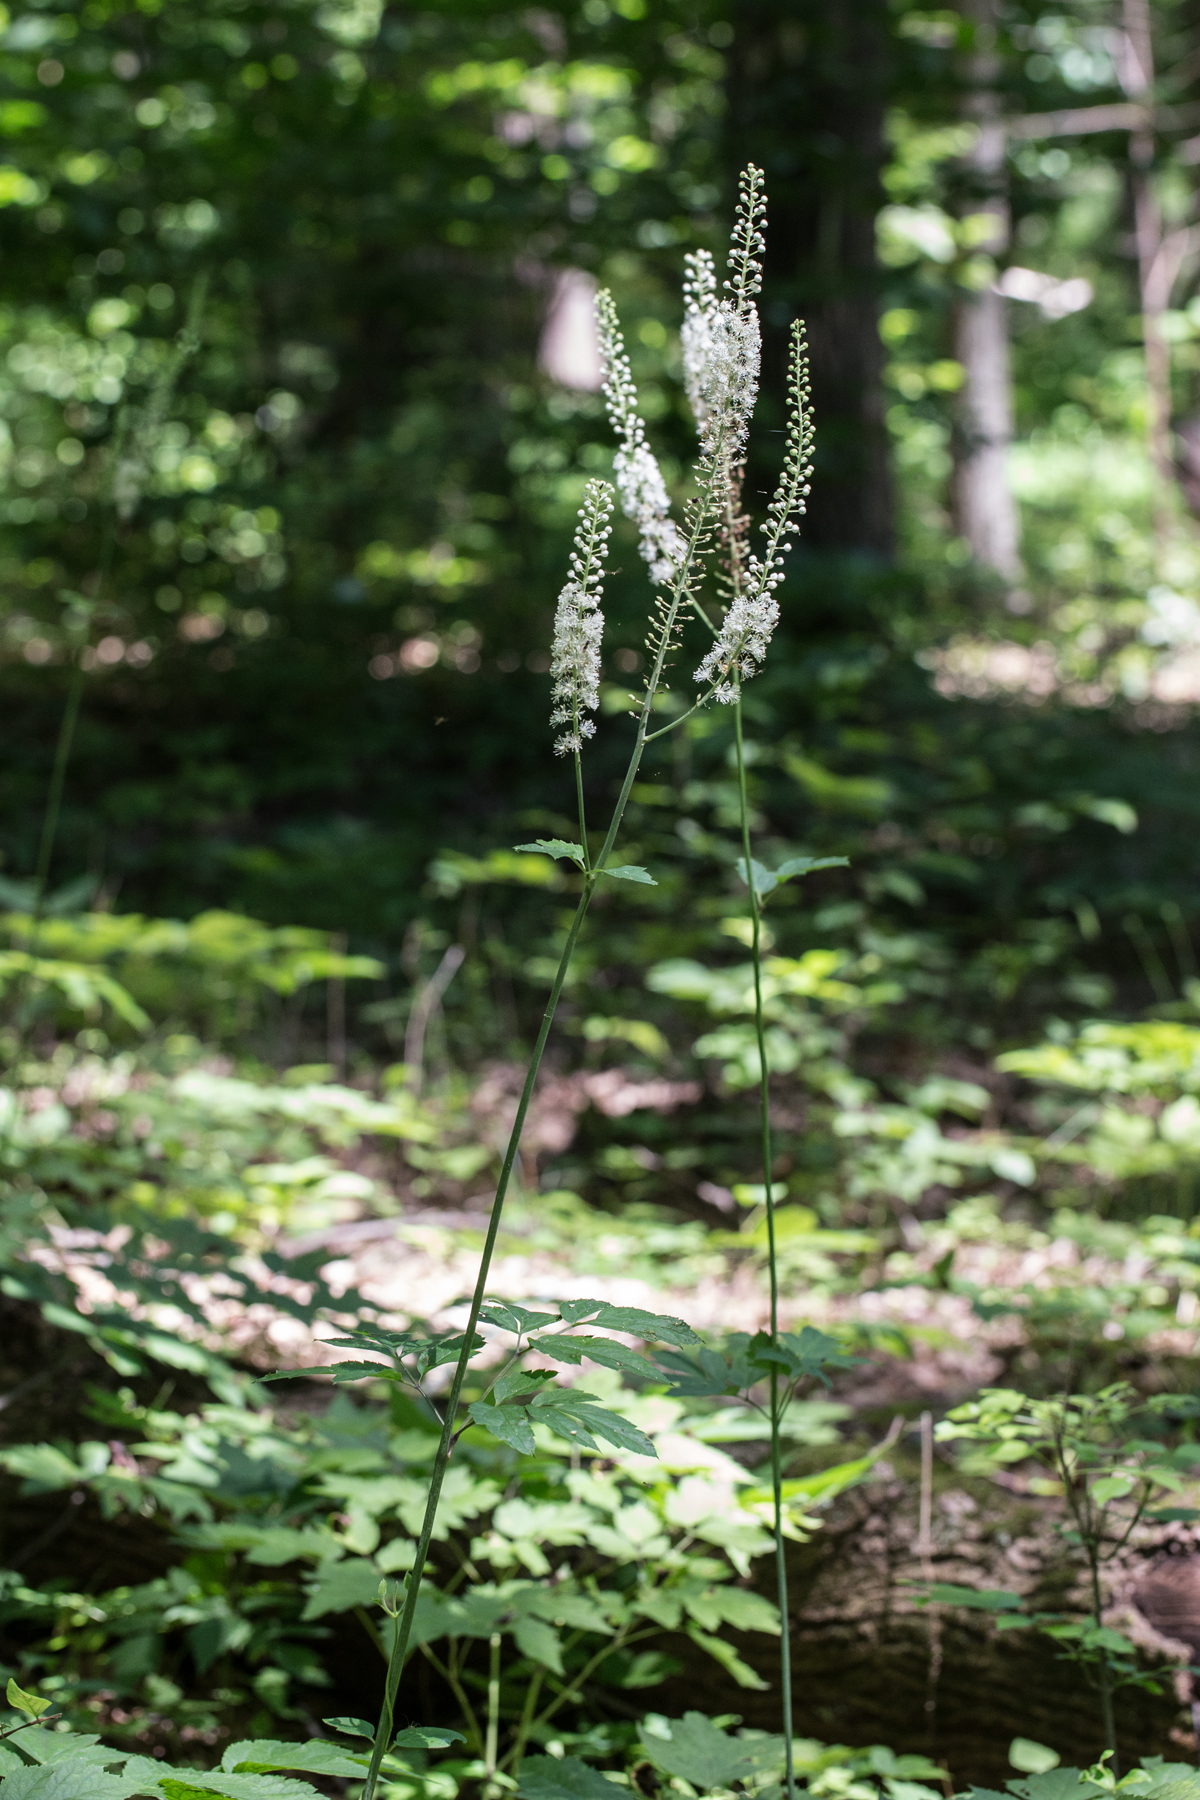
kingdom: Plantae
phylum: Tracheophyta
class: Magnoliopsida
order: Ranunculales
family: Ranunculaceae
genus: Actaea
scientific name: Actaea racemosa
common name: Black cohosh
